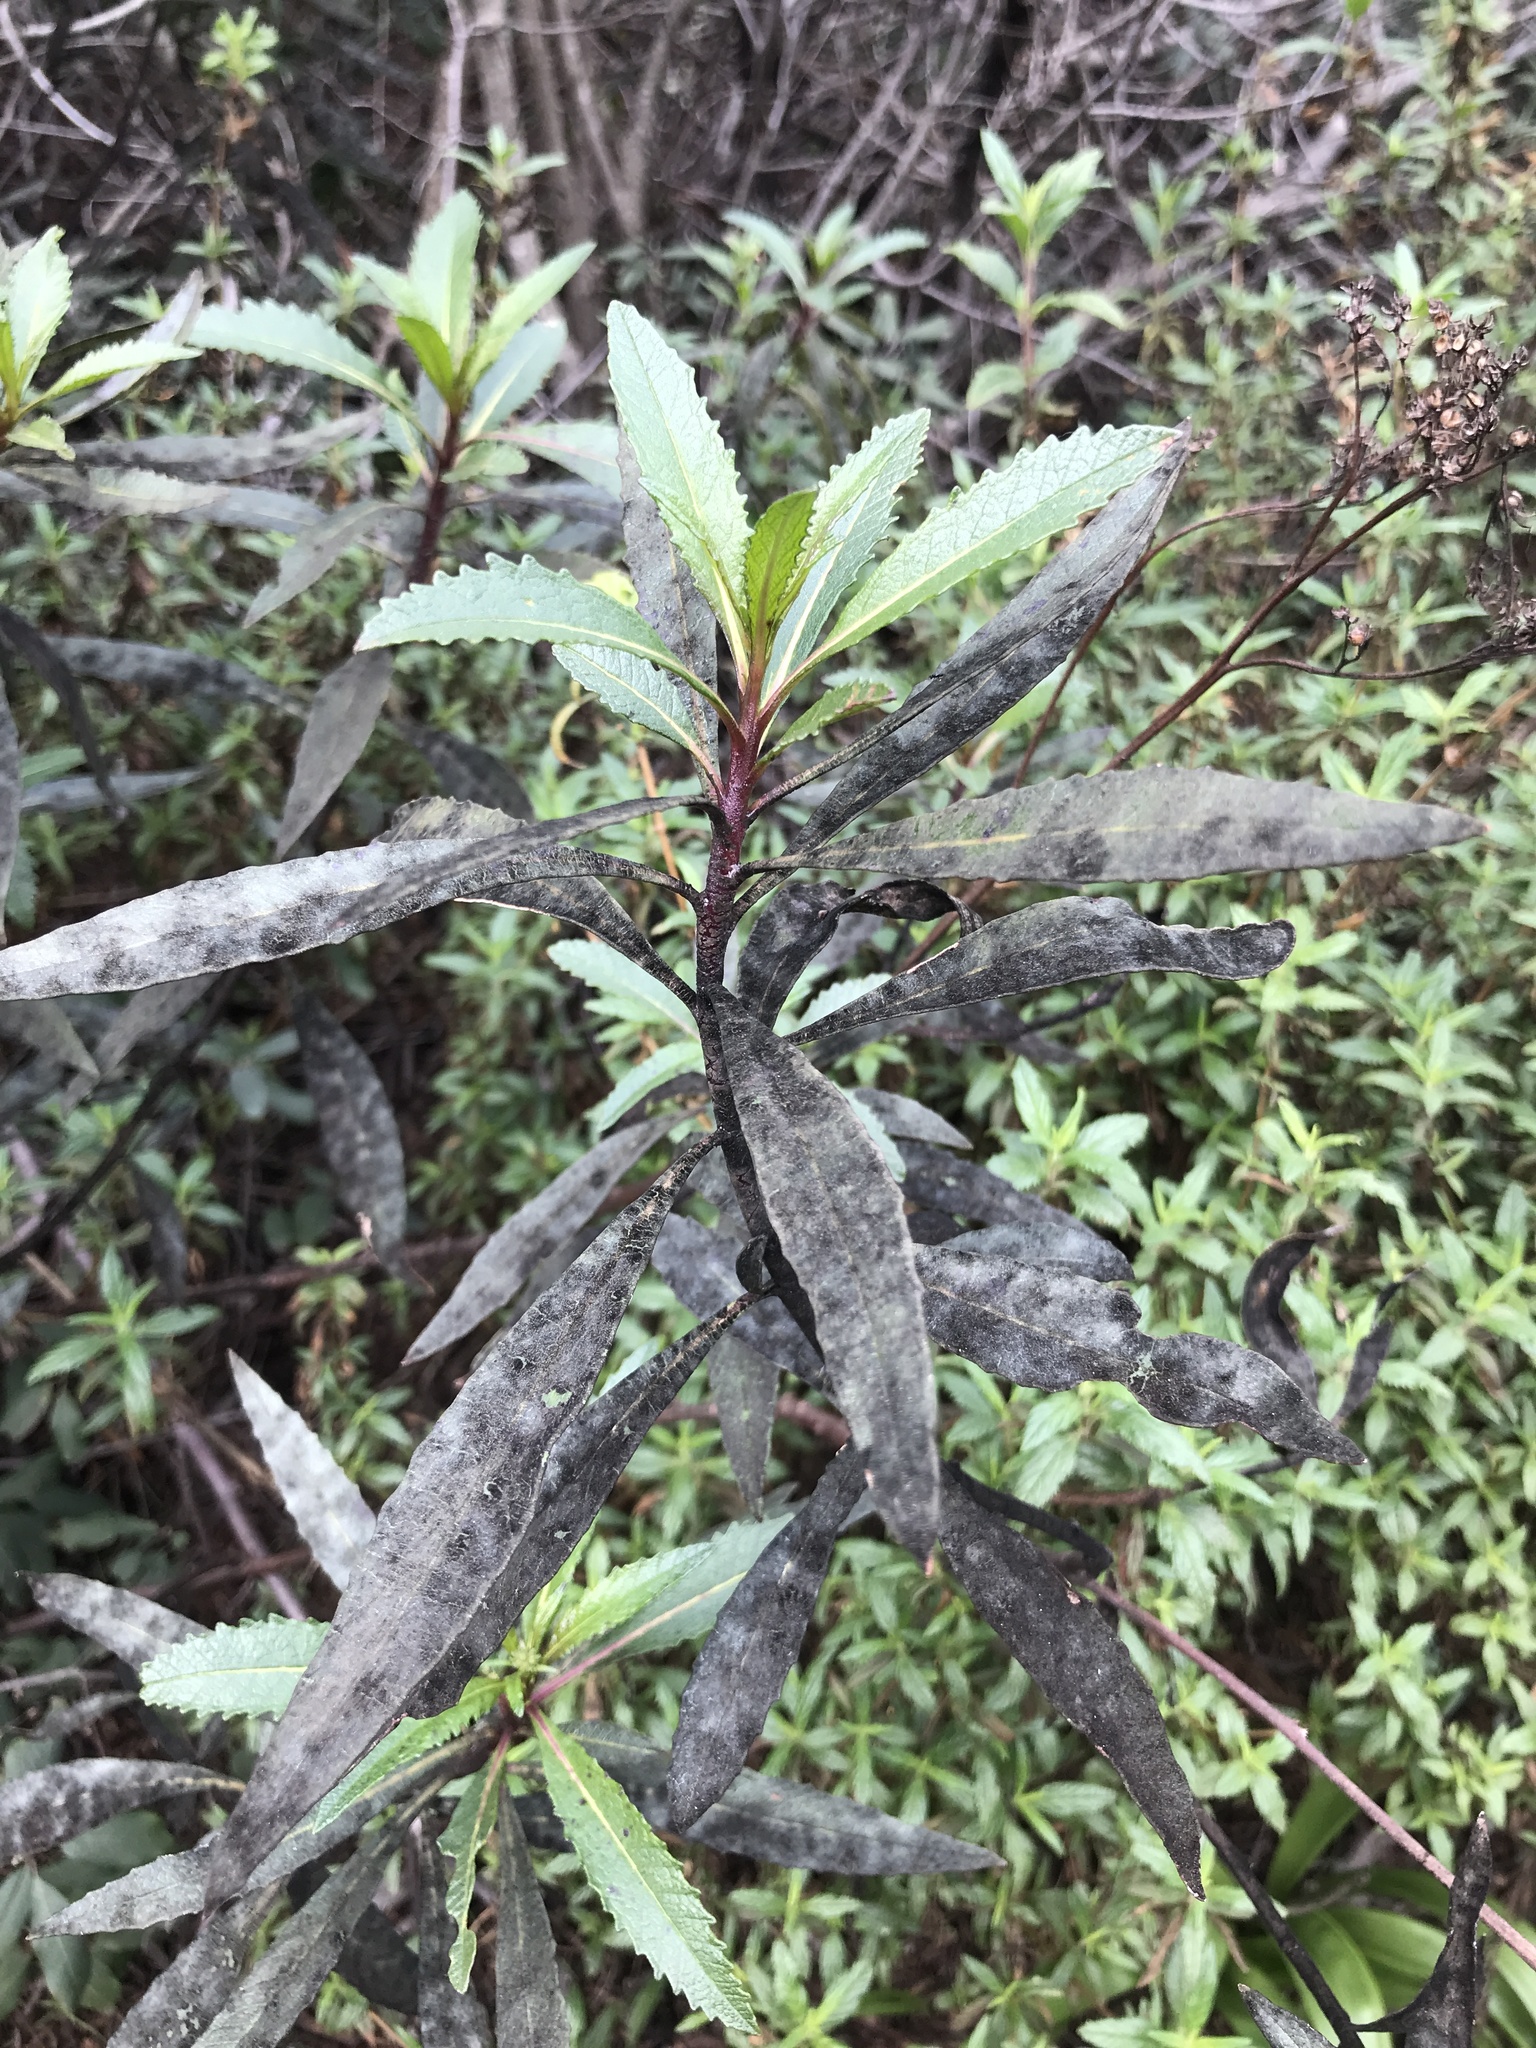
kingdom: Plantae
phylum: Tracheophyta
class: Magnoliopsida
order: Boraginales
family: Namaceae
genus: Eriodictyon
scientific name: Eriodictyon californicum
